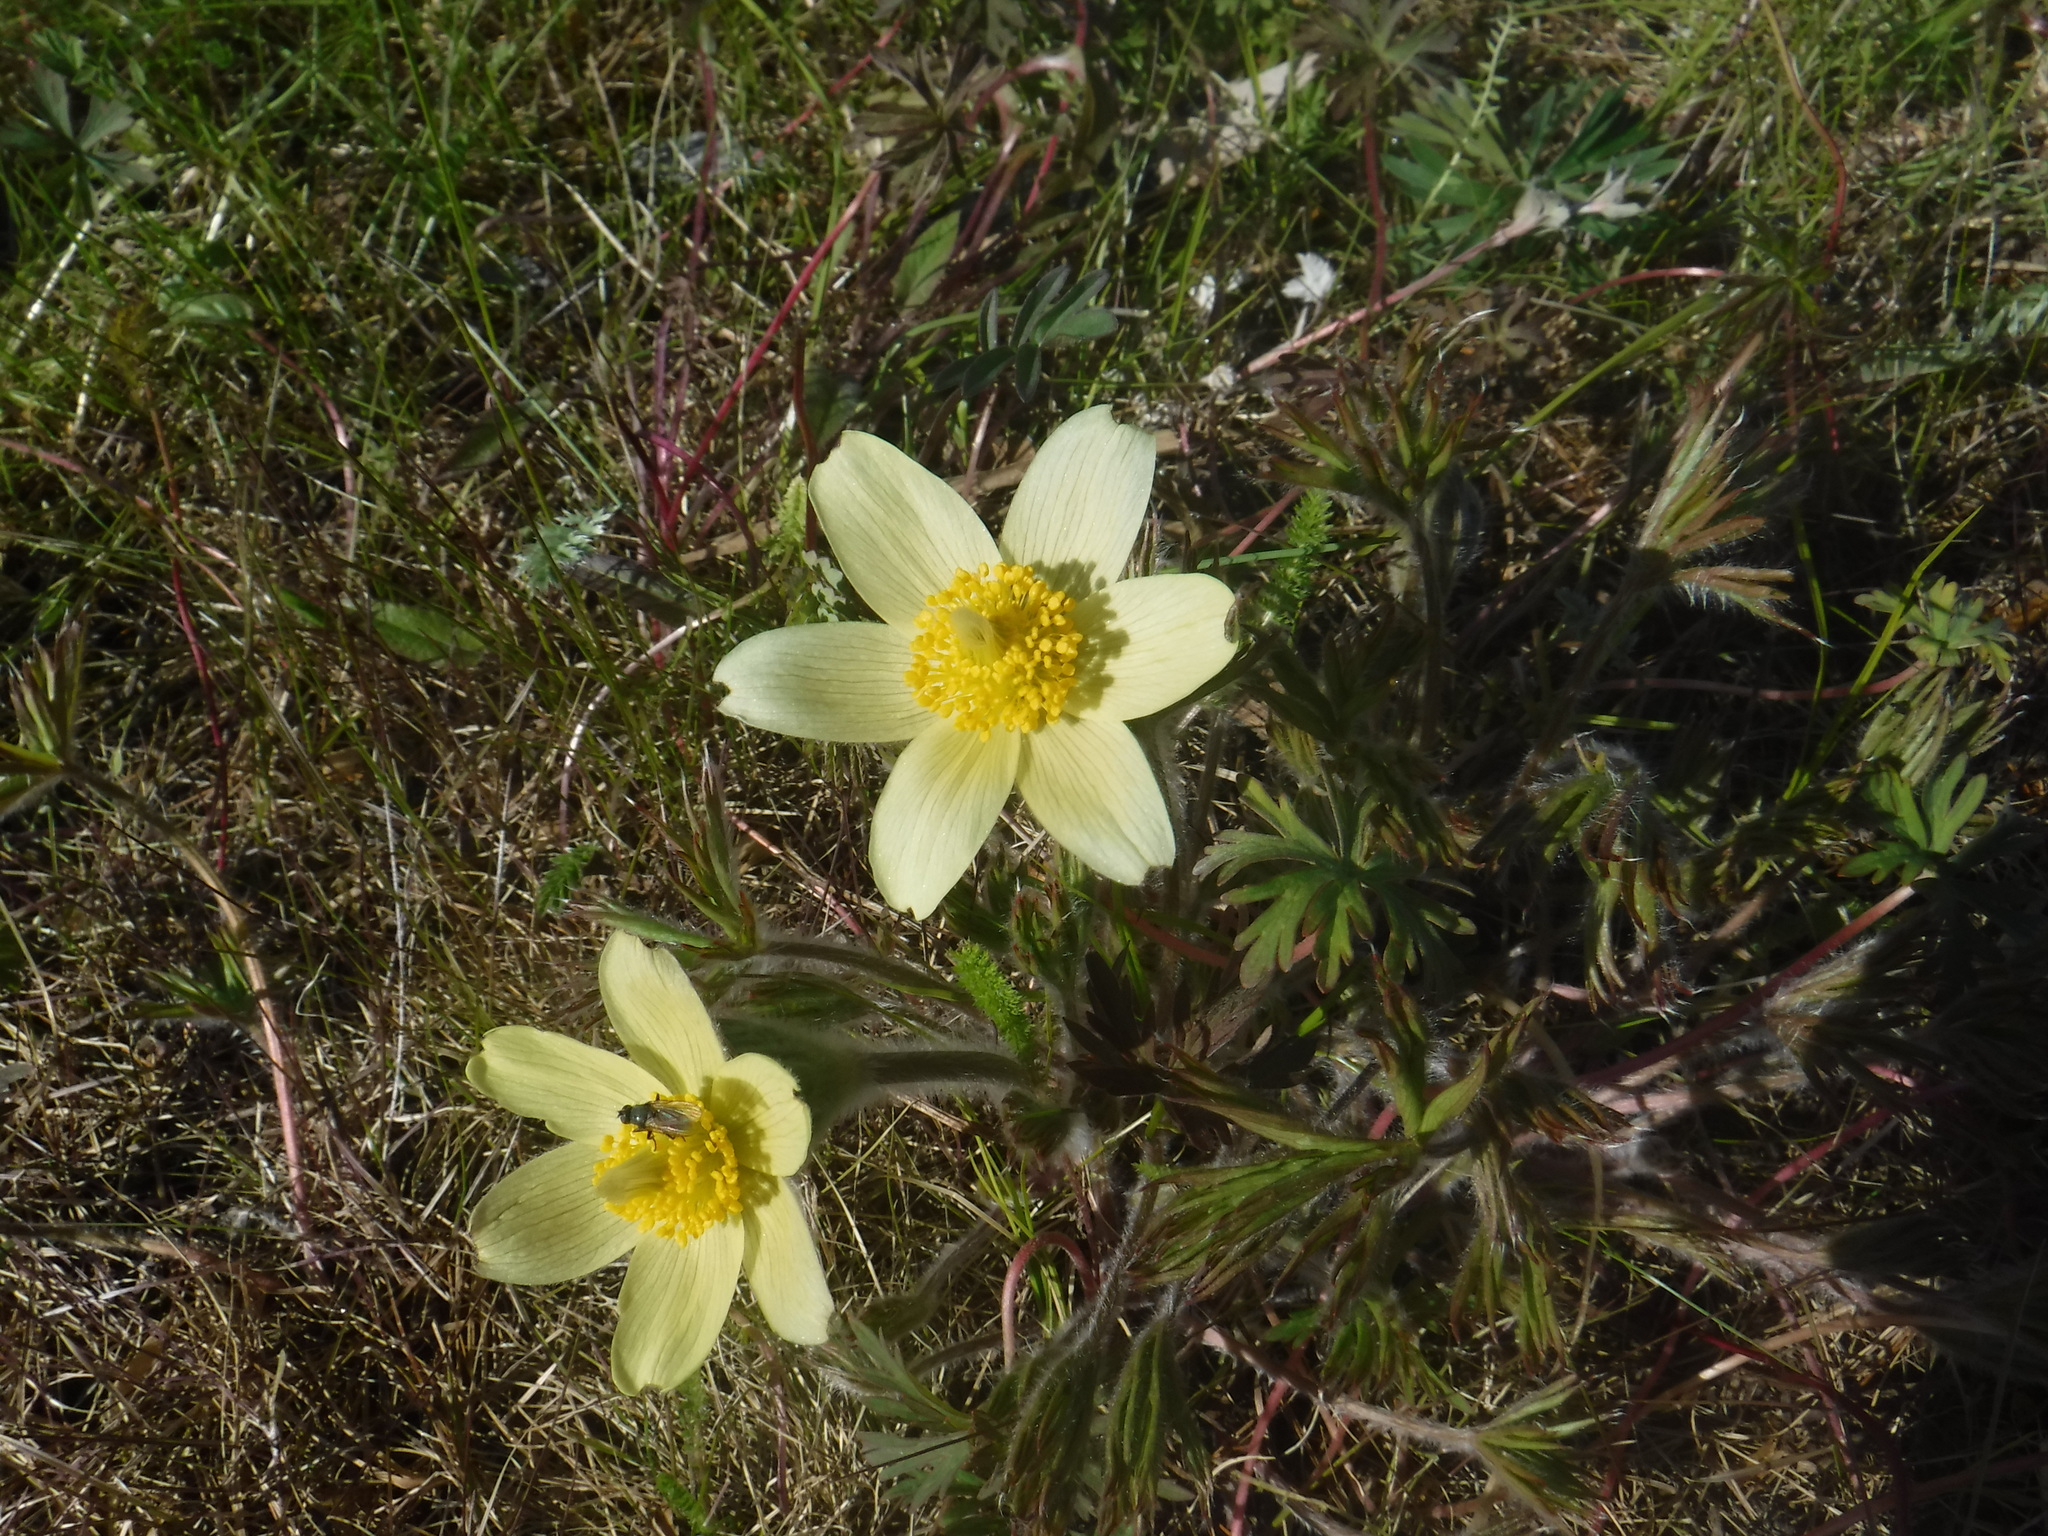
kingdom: Plantae
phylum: Tracheophyta
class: Magnoliopsida
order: Ranunculales
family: Ranunculaceae
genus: Pulsatilla
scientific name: Pulsatilla patens
